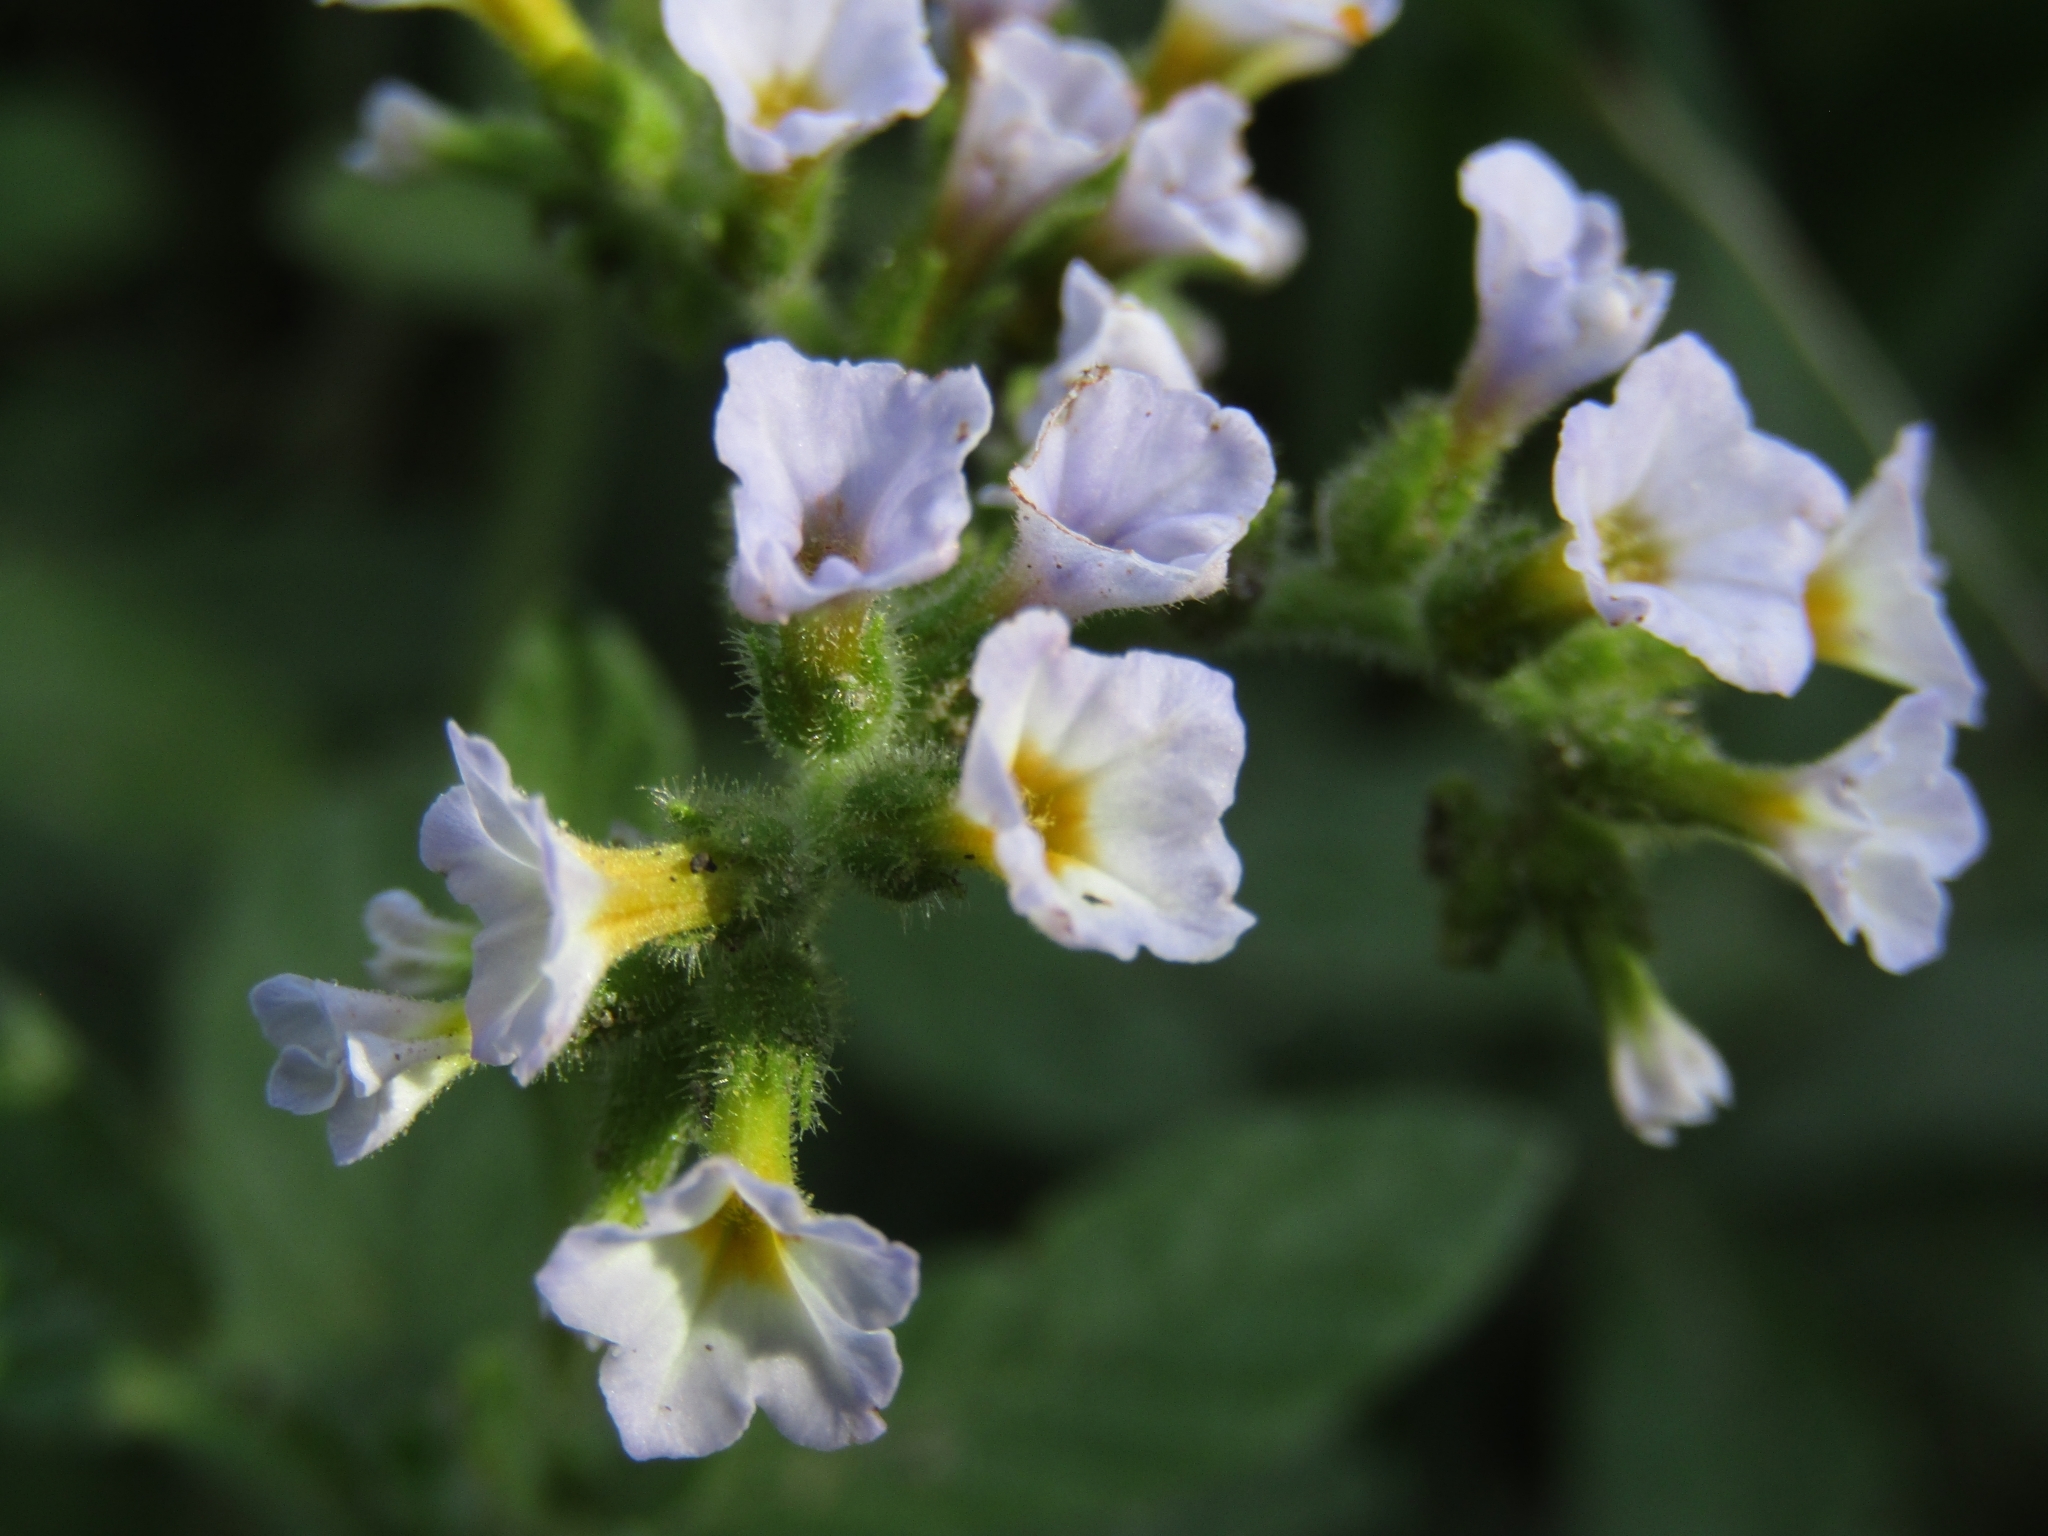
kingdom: Plantae
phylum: Tracheophyta
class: Magnoliopsida
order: Boraginales
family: Heliotropiaceae
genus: Heliotropium
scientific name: Heliotropium amplexicaule
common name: Clasping heliotrope
